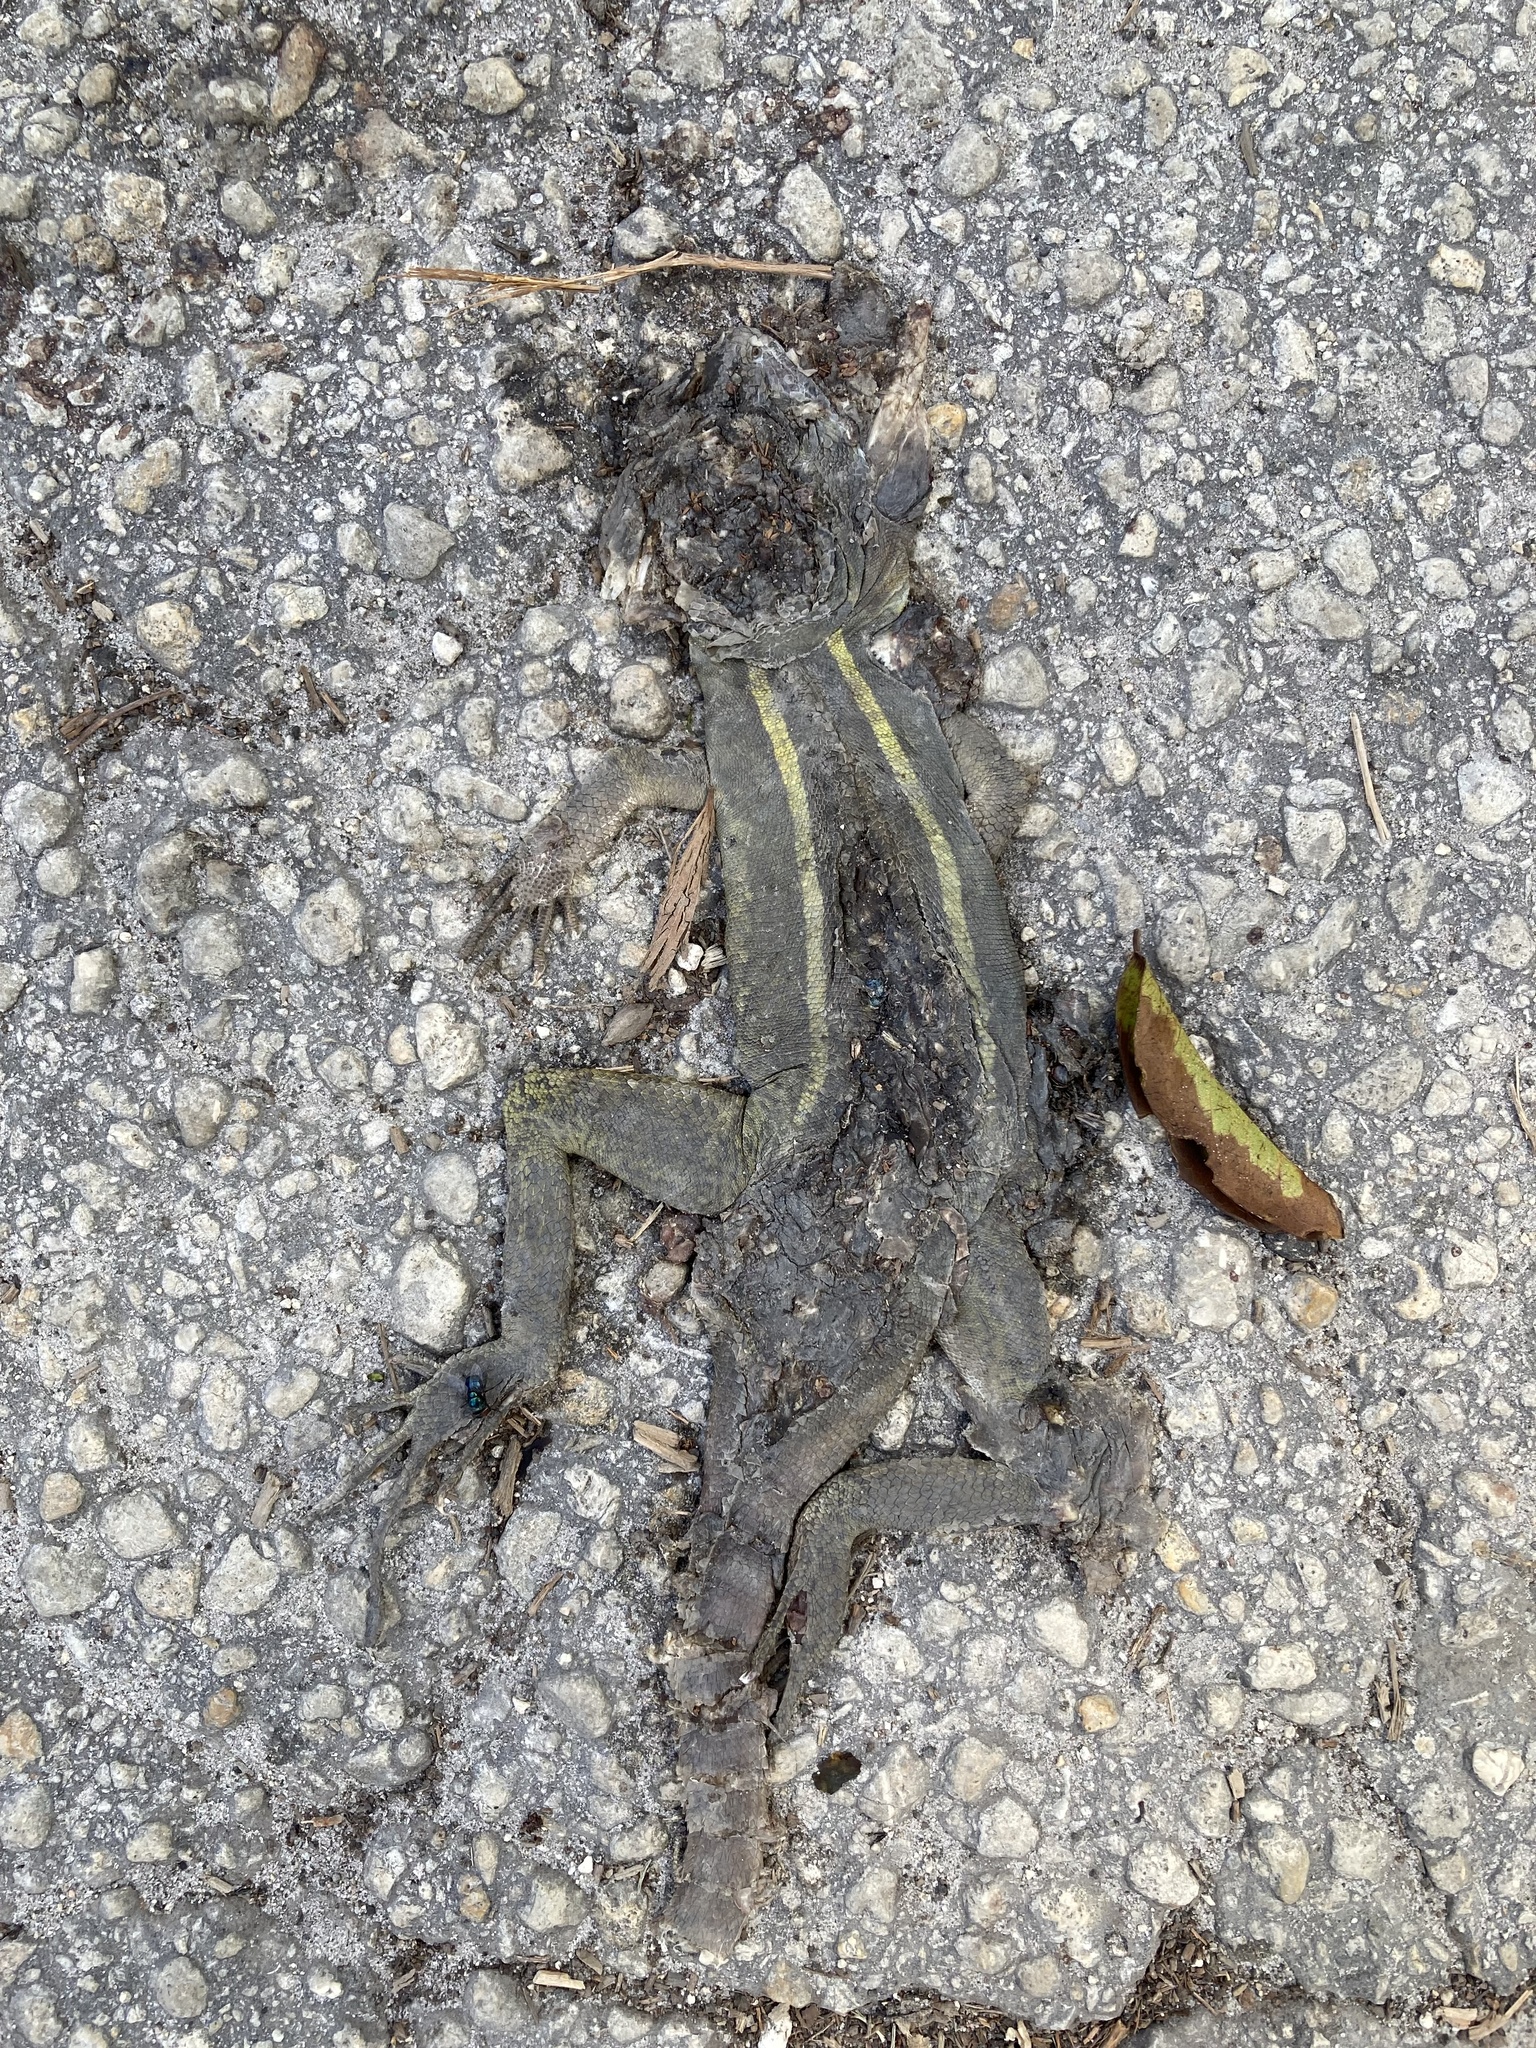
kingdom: Animalia
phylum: Chordata
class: Squamata
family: Corytophanidae
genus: Basiliscus
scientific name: Basiliscus vittatus
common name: Brown basilisk
